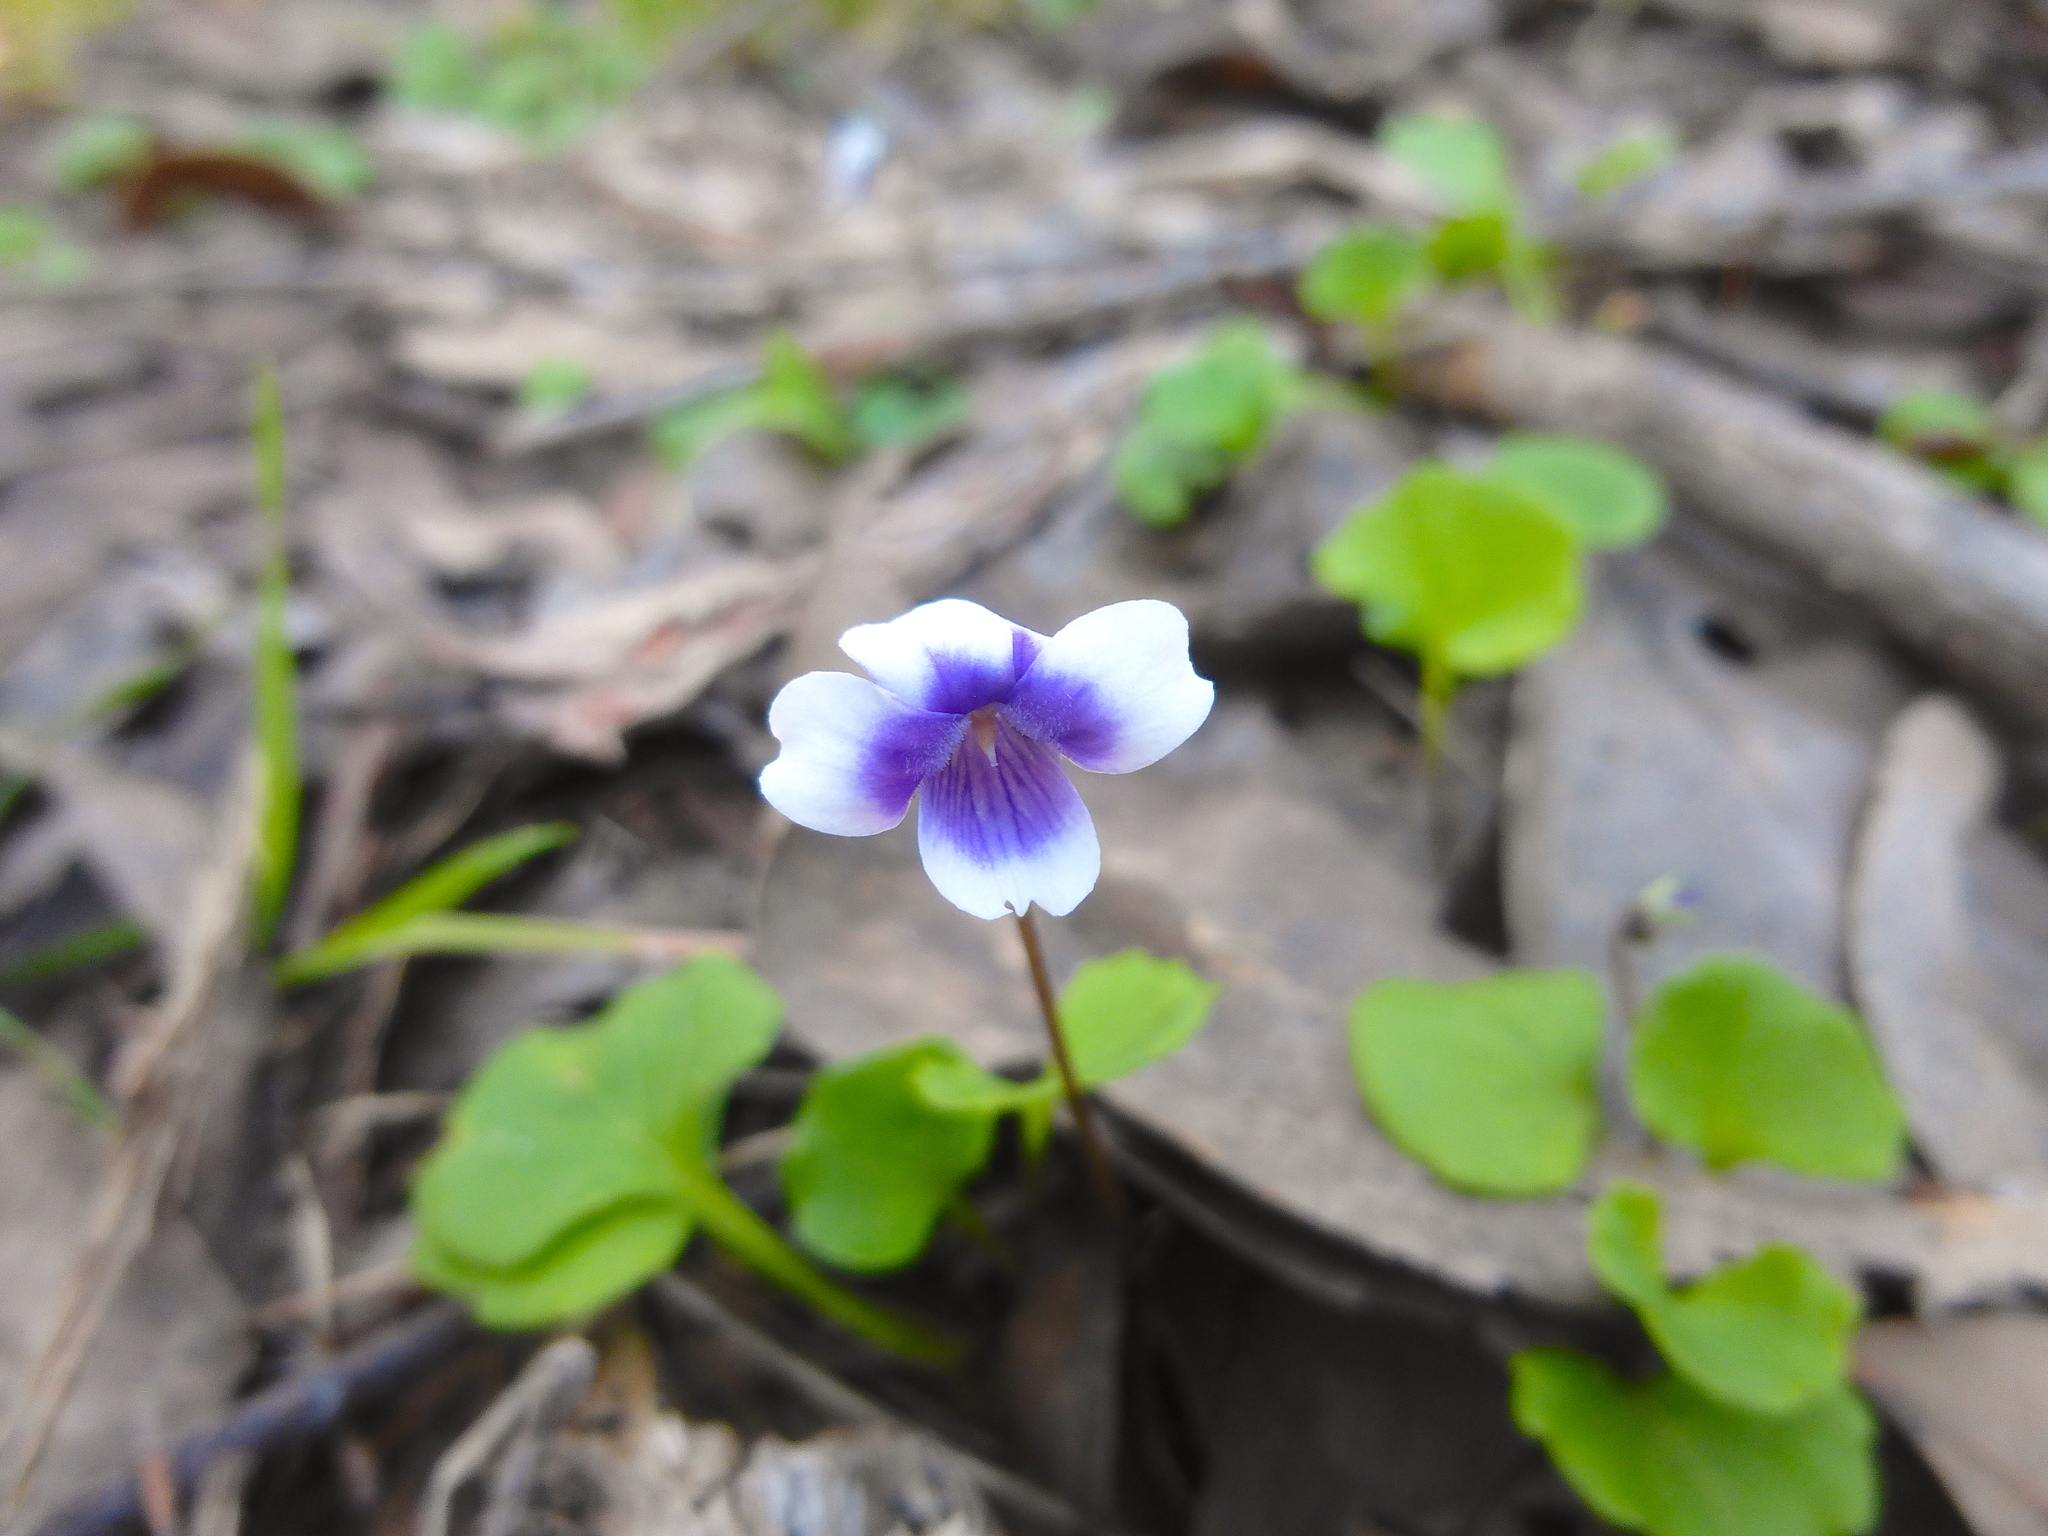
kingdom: Plantae
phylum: Tracheophyta
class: Magnoliopsida
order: Malpighiales
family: Violaceae
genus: Viola
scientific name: Viola hederacea
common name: Australian violet
